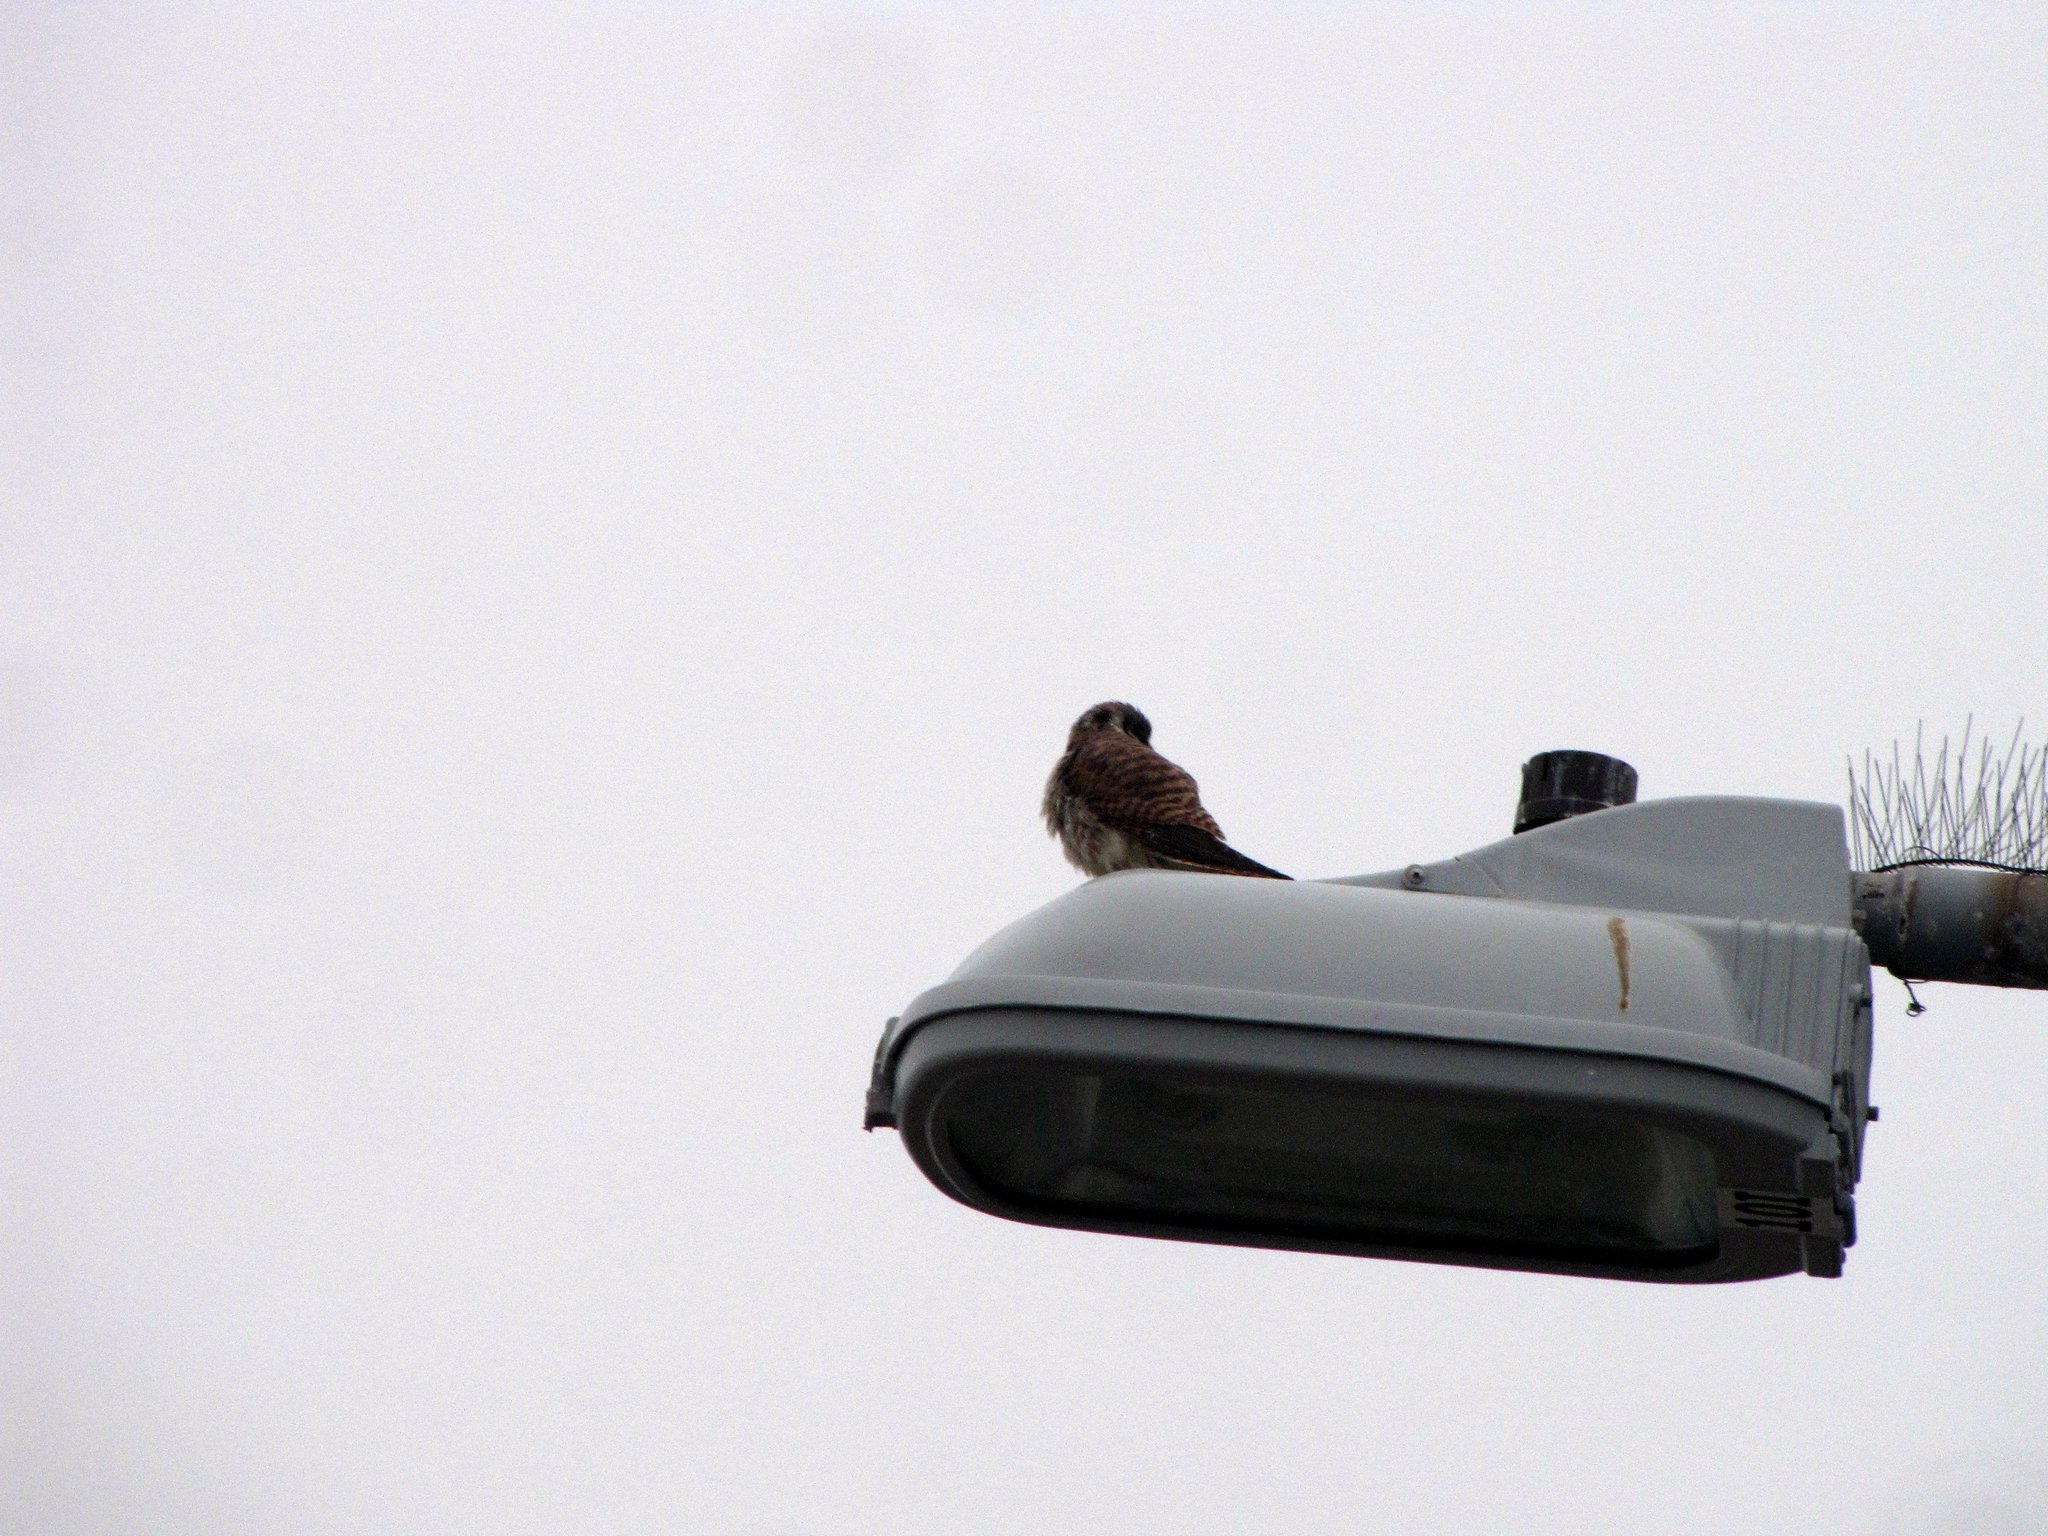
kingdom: Animalia
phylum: Chordata
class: Aves
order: Falconiformes
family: Falconidae
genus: Falco
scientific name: Falco sparverius
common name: American kestrel
